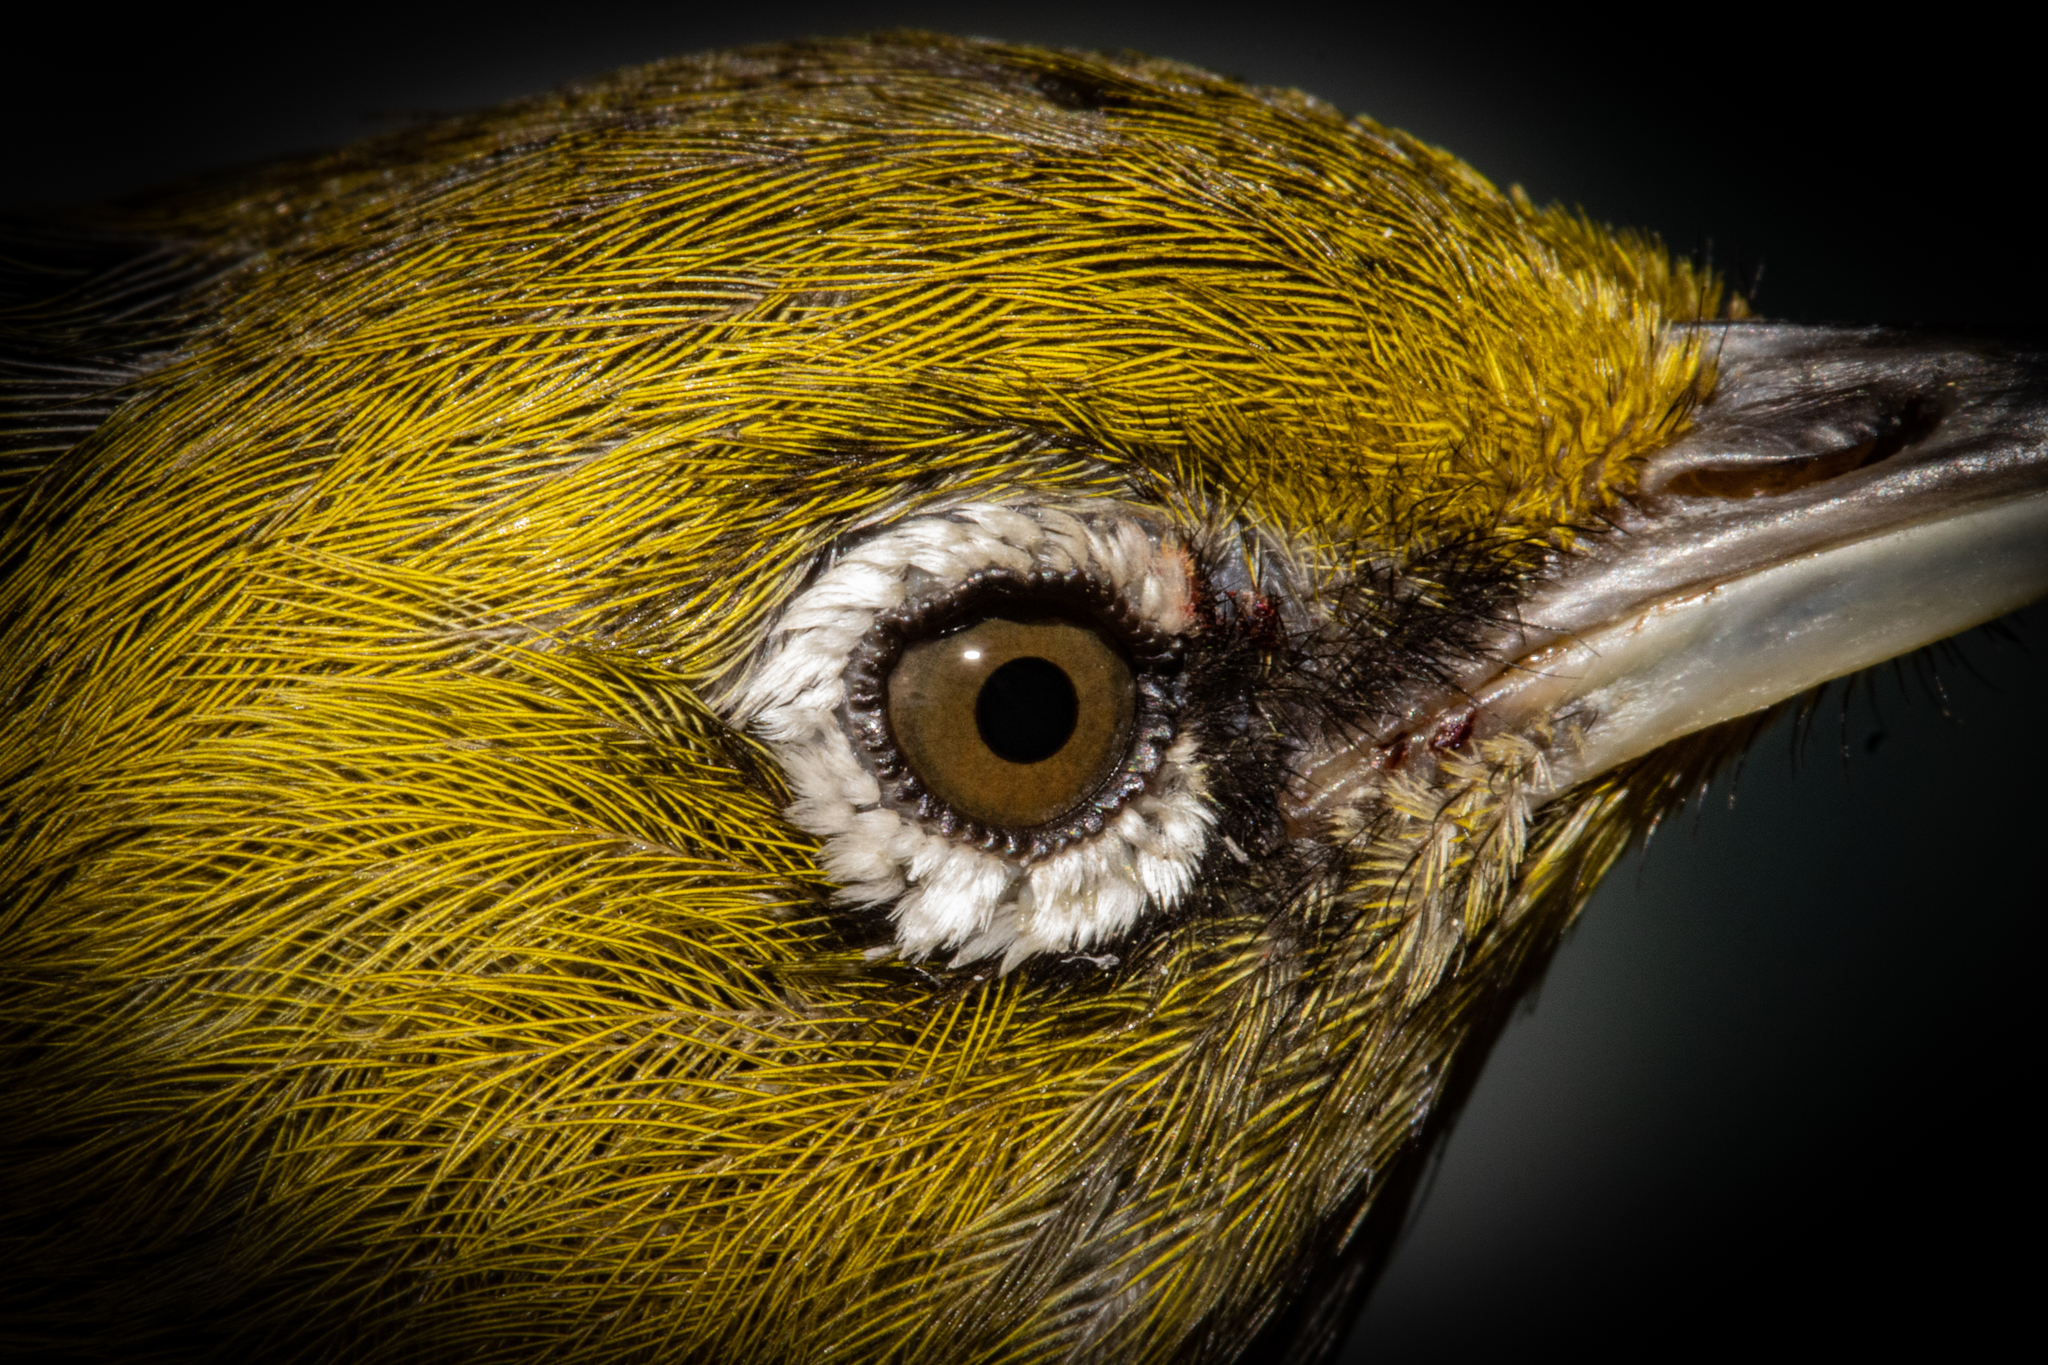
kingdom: Animalia
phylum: Chordata
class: Aves
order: Passeriformes
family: Zosteropidae
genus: Zosterops
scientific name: Zosterops lateralis
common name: Silvereye
